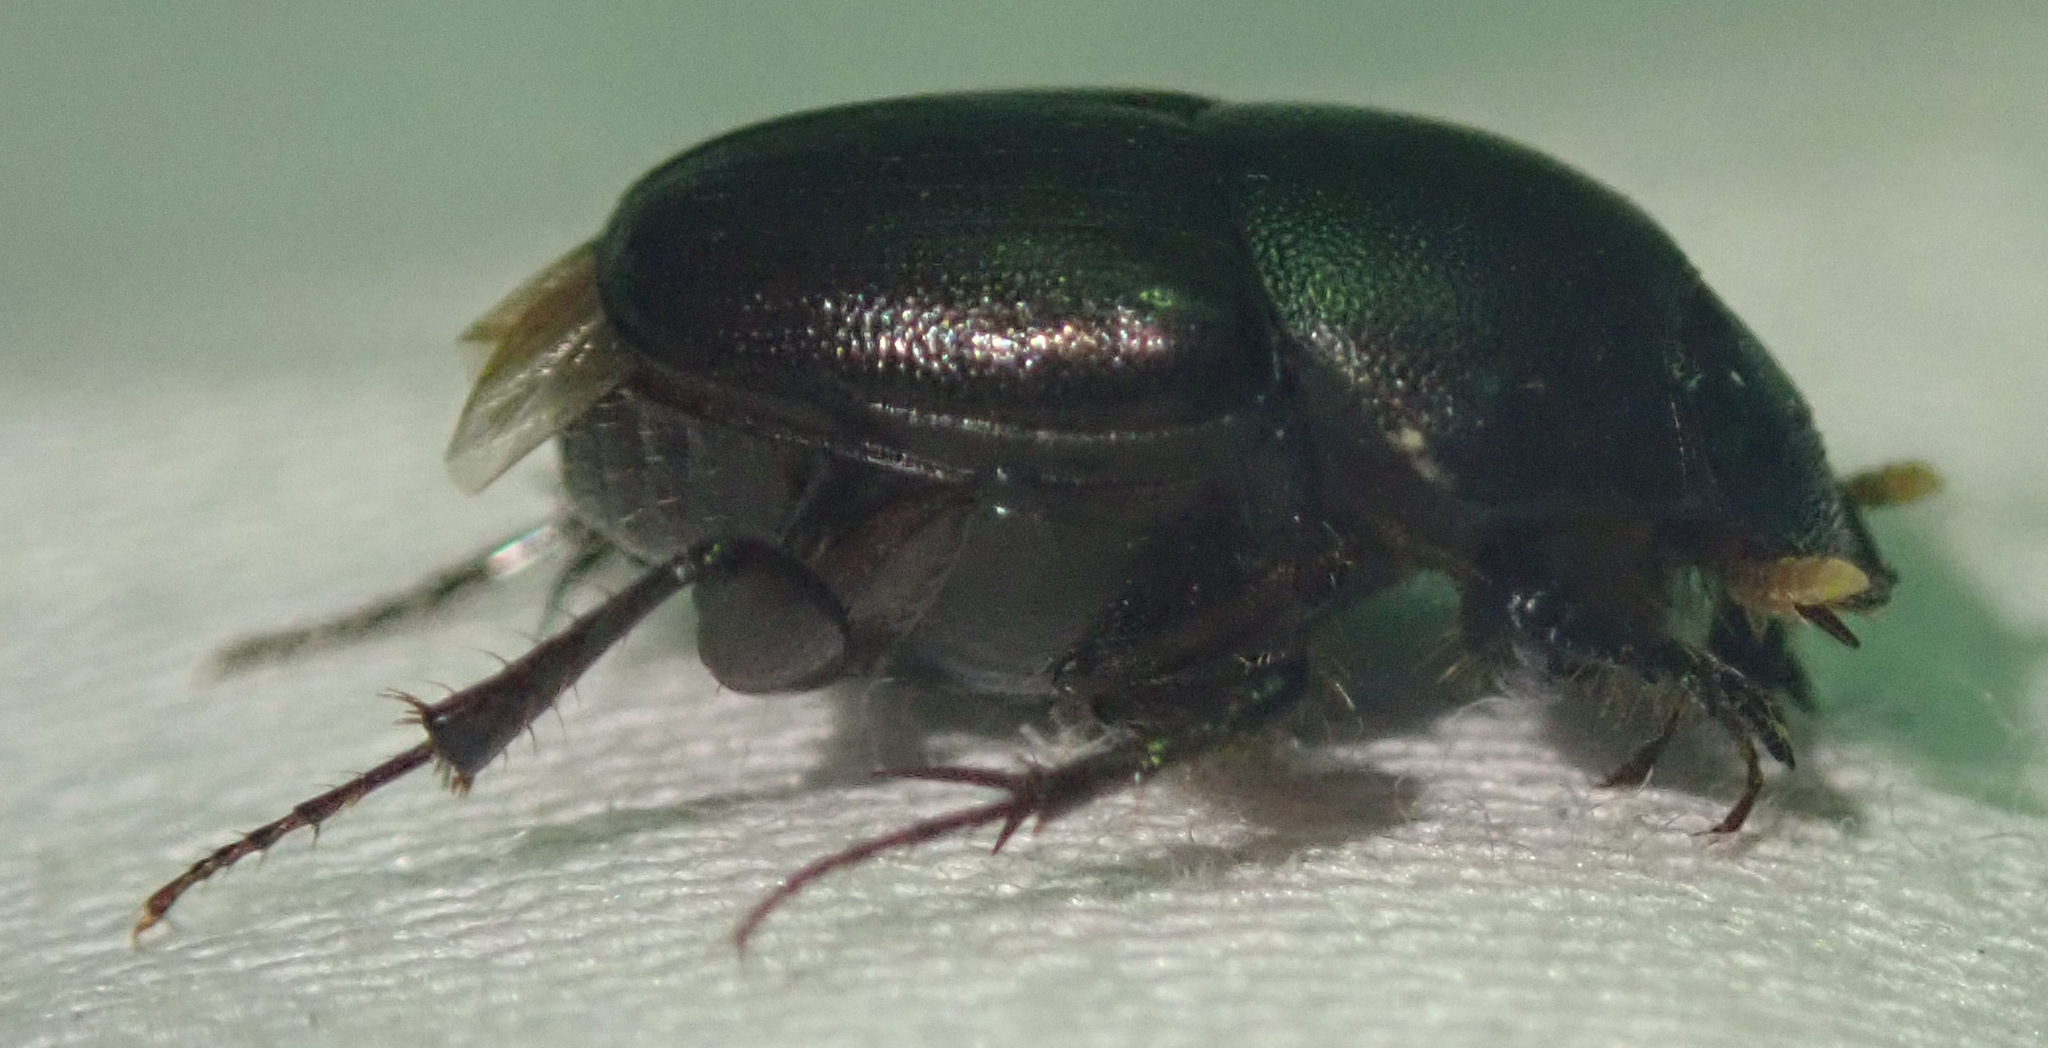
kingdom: Animalia
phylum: Arthropoda
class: Insecta
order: Coleoptera
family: Scarabaeidae
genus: Euonthophagus
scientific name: Euonthophagus carbonarius
